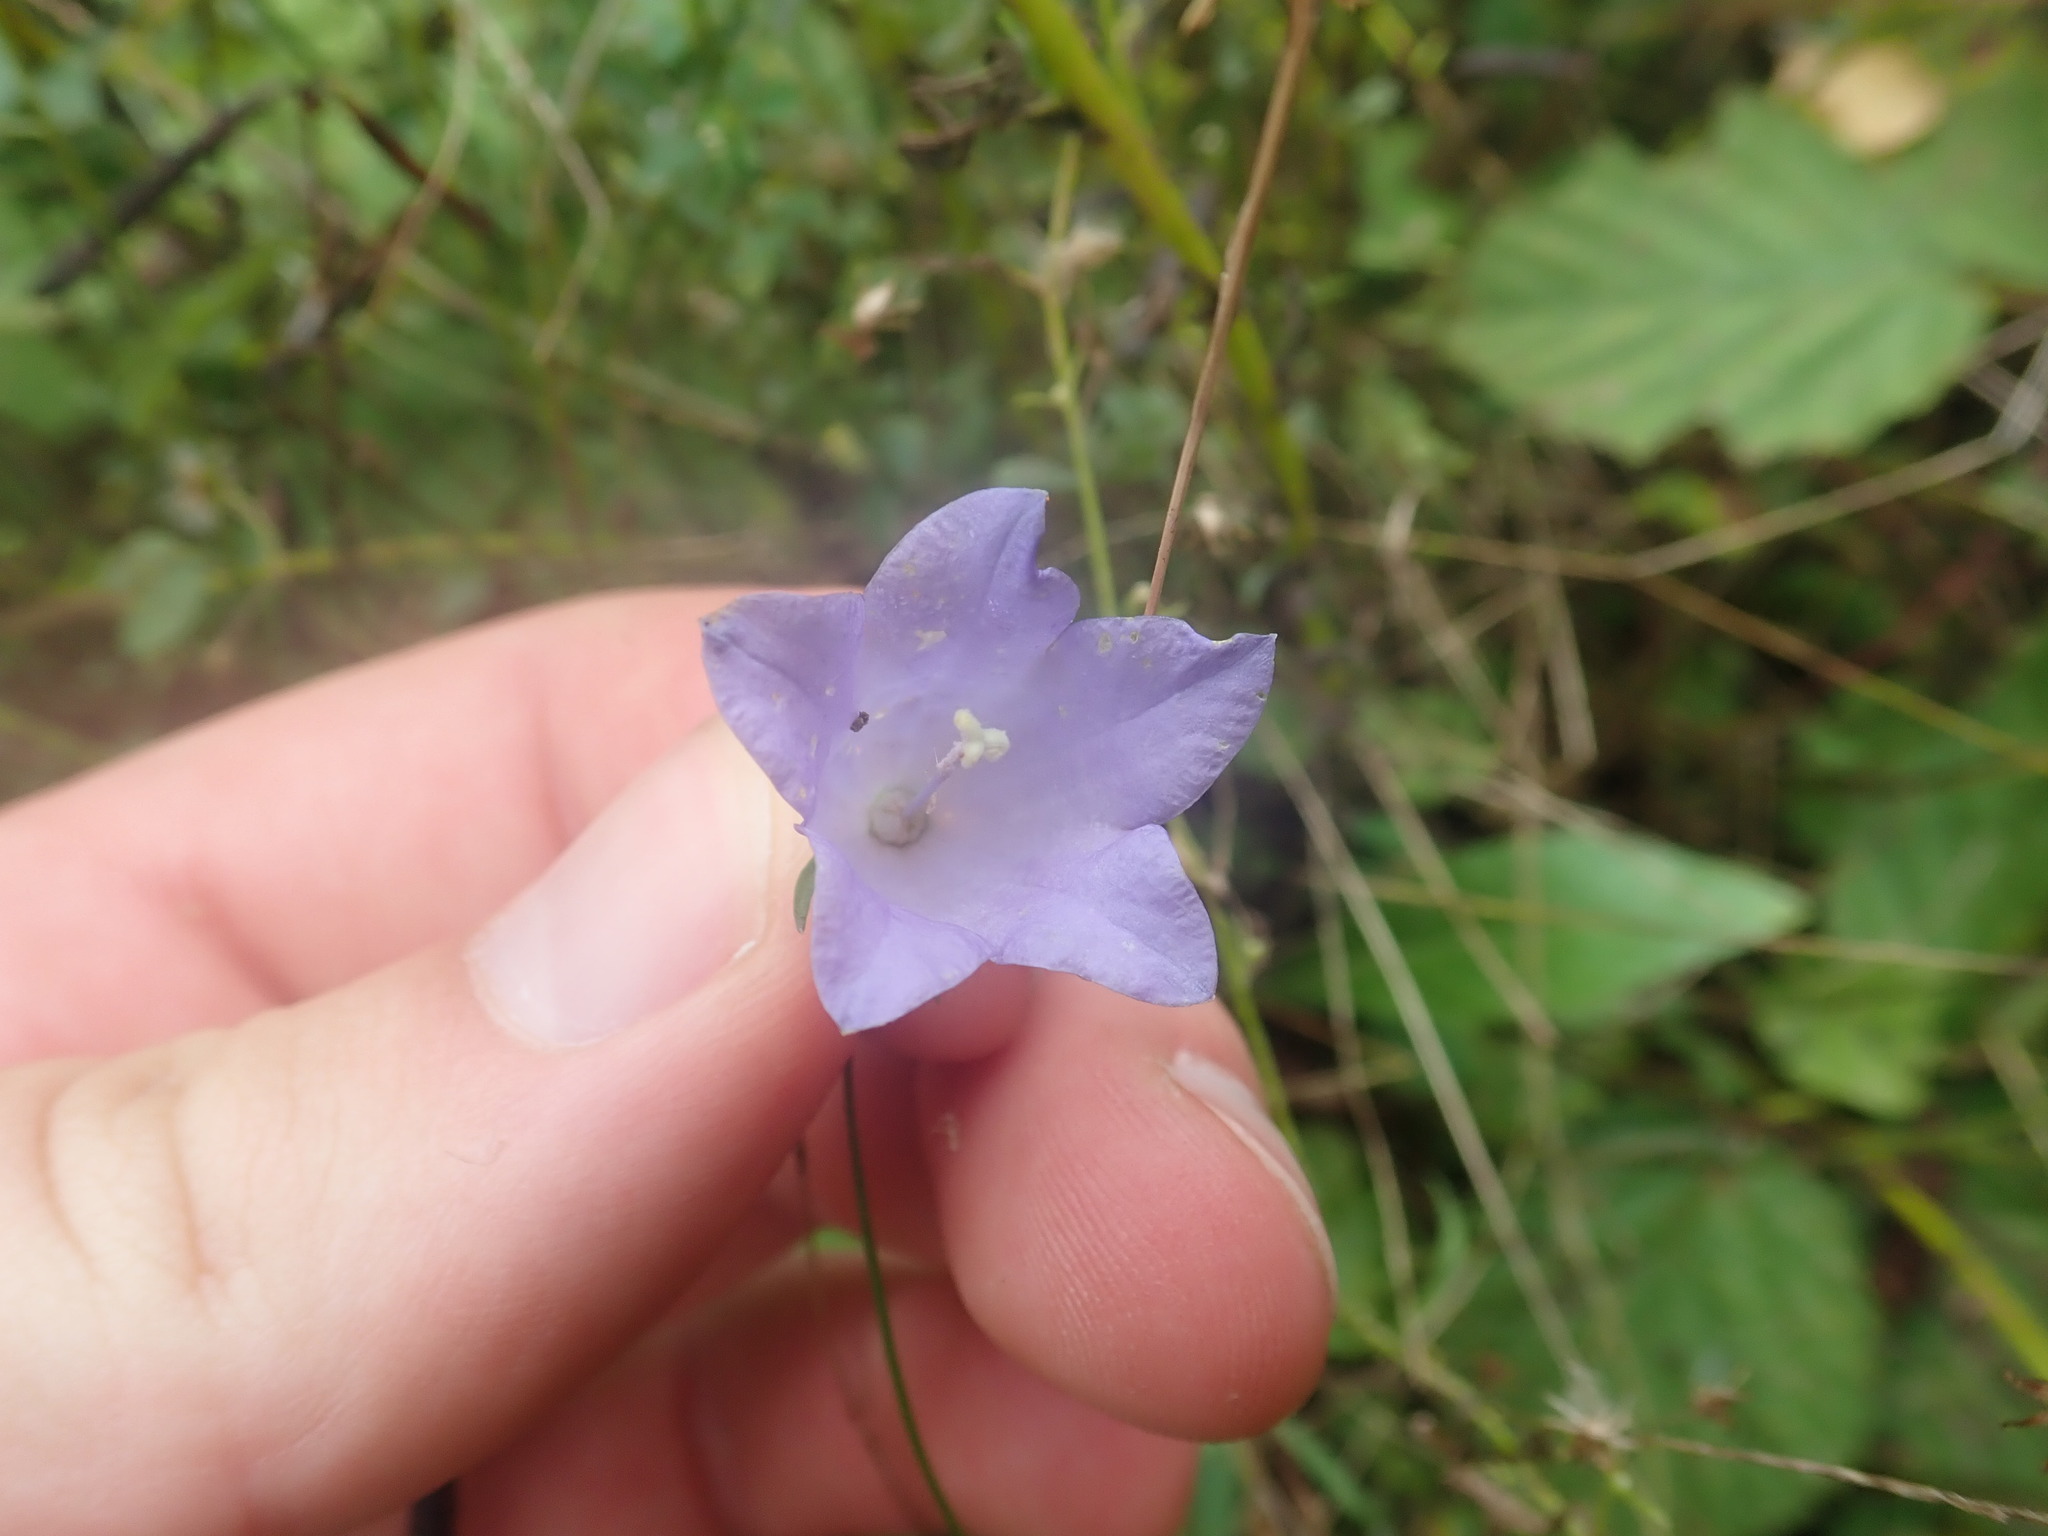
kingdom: Plantae
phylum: Tracheophyta
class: Magnoliopsida
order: Asterales
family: Campanulaceae
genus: Campanula
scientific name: Campanula rotundifolia
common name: Harebell
